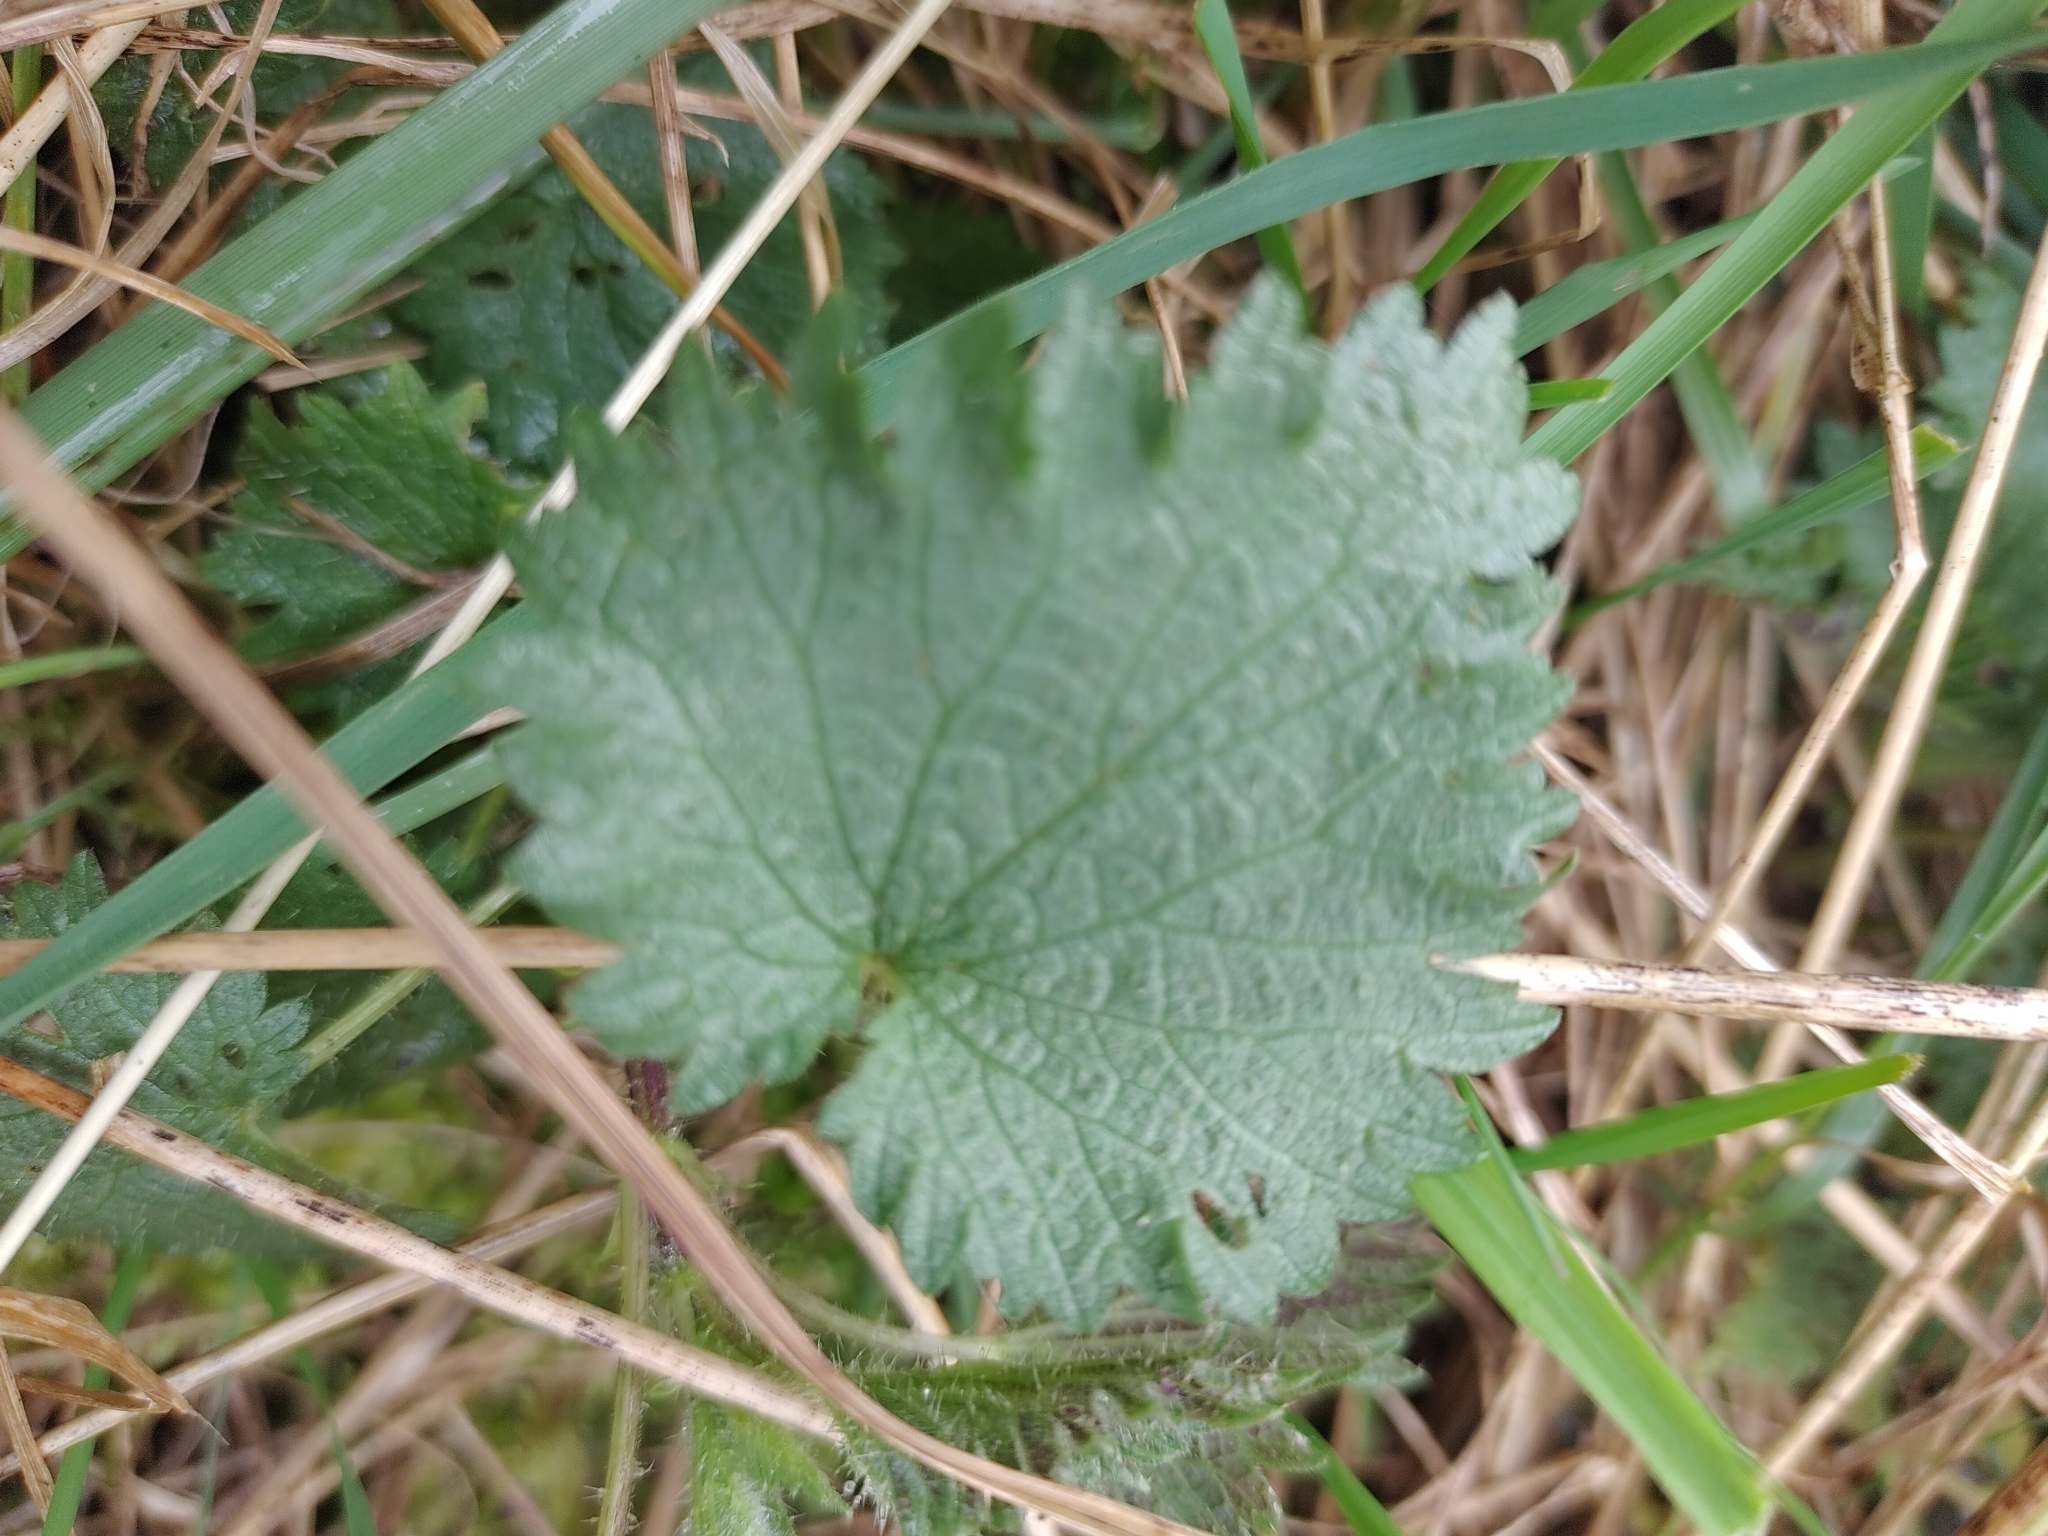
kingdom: Plantae
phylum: Tracheophyta
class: Magnoliopsida
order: Rosales
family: Urticaceae
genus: Urtica
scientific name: Urtica dioica
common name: Common nettle
